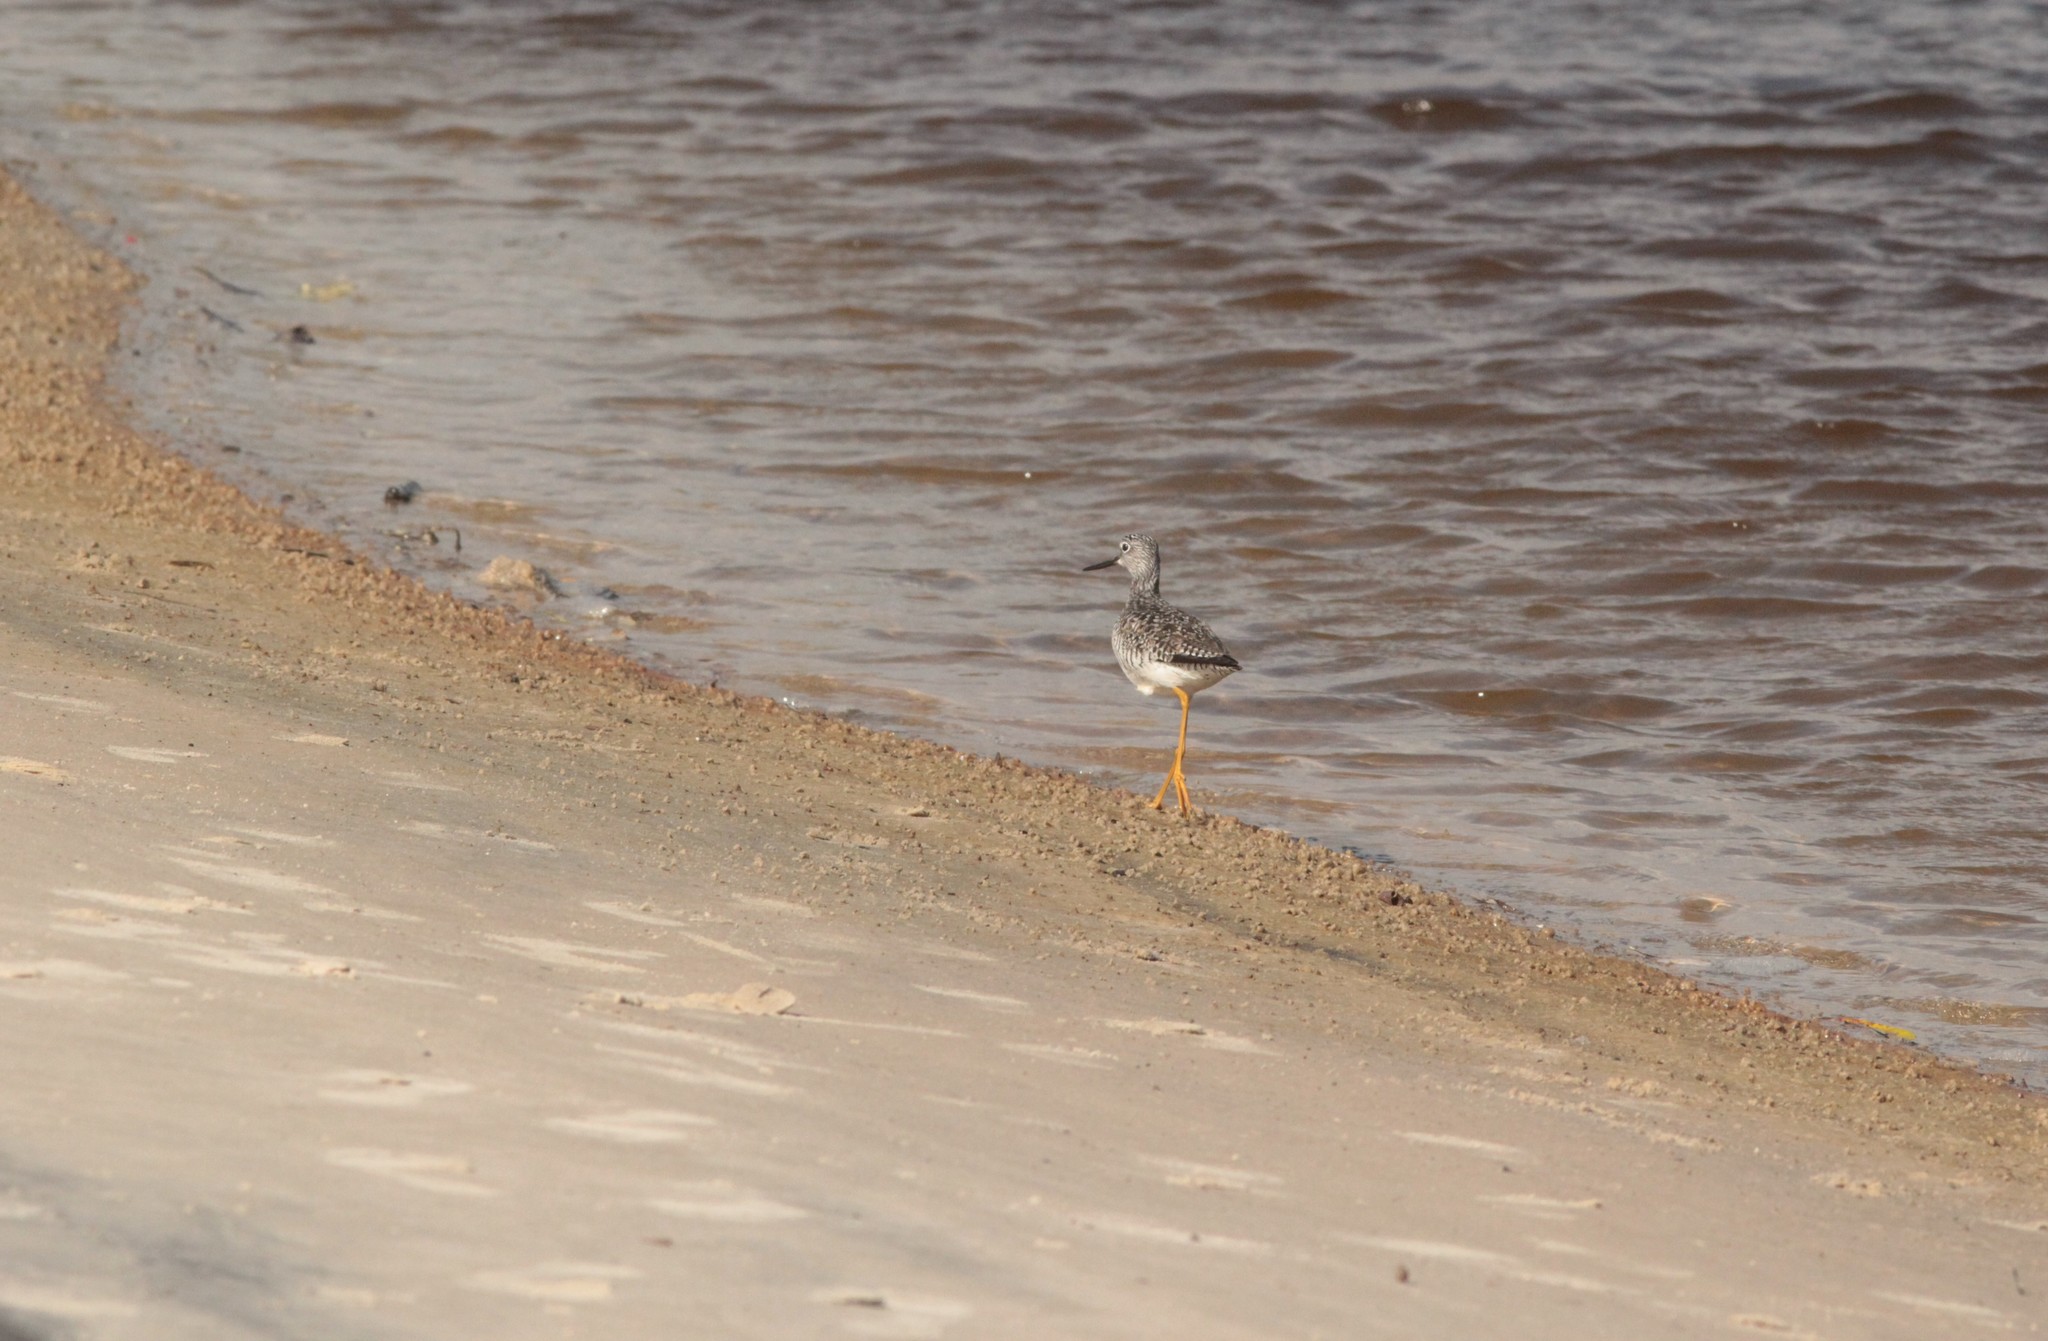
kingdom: Animalia
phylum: Chordata
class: Aves
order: Charadriiformes
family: Scolopacidae
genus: Tringa
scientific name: Tringa melanoleuca
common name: Greater yellowlegs
